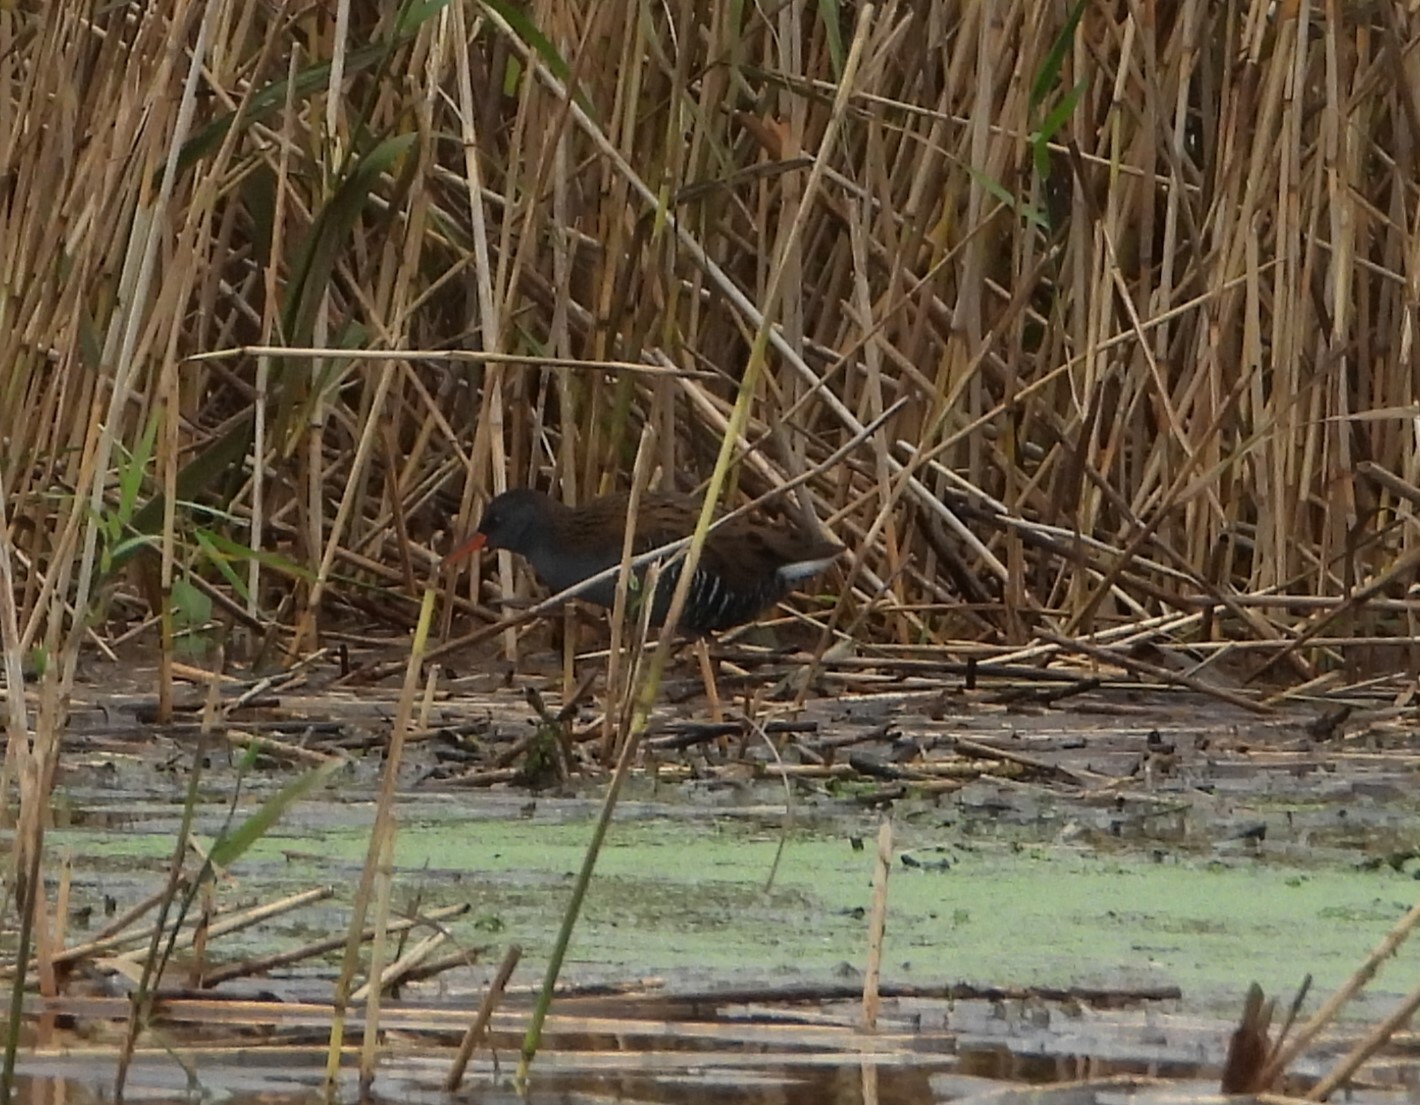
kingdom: Animalia
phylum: Chordata
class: Aves
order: Gruiformes
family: Rallidae
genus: Rallus
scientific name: Rallus aquaticus
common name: Water rail
